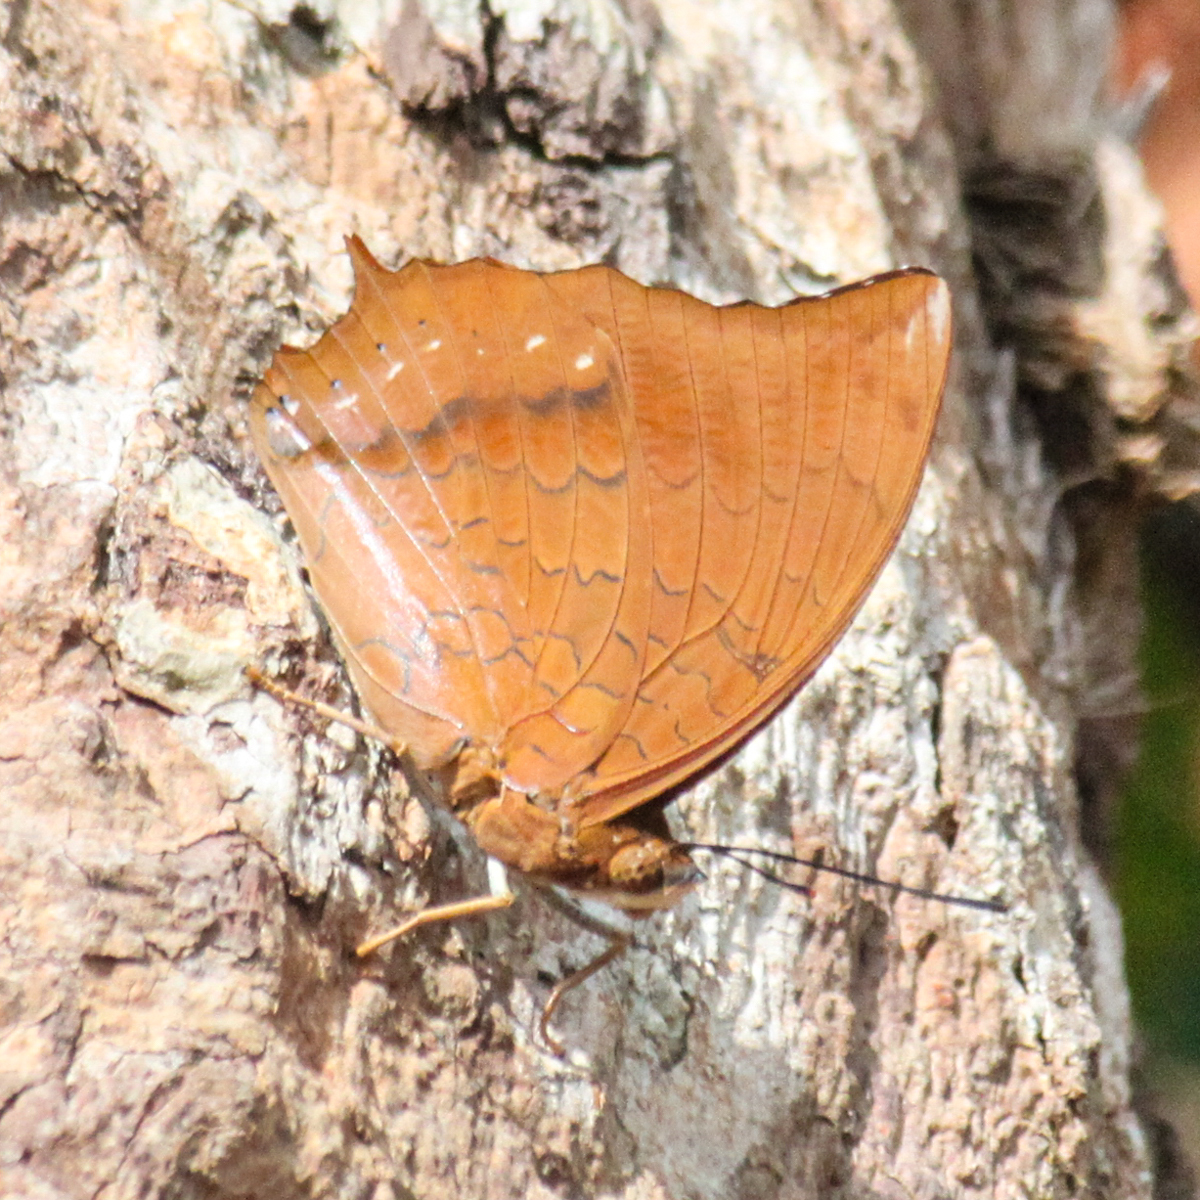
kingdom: Animalia
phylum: Arthropoda
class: Insecta
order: Lepidoptera
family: Nymphalidae
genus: Charaxes
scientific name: Charaxes bernardus
